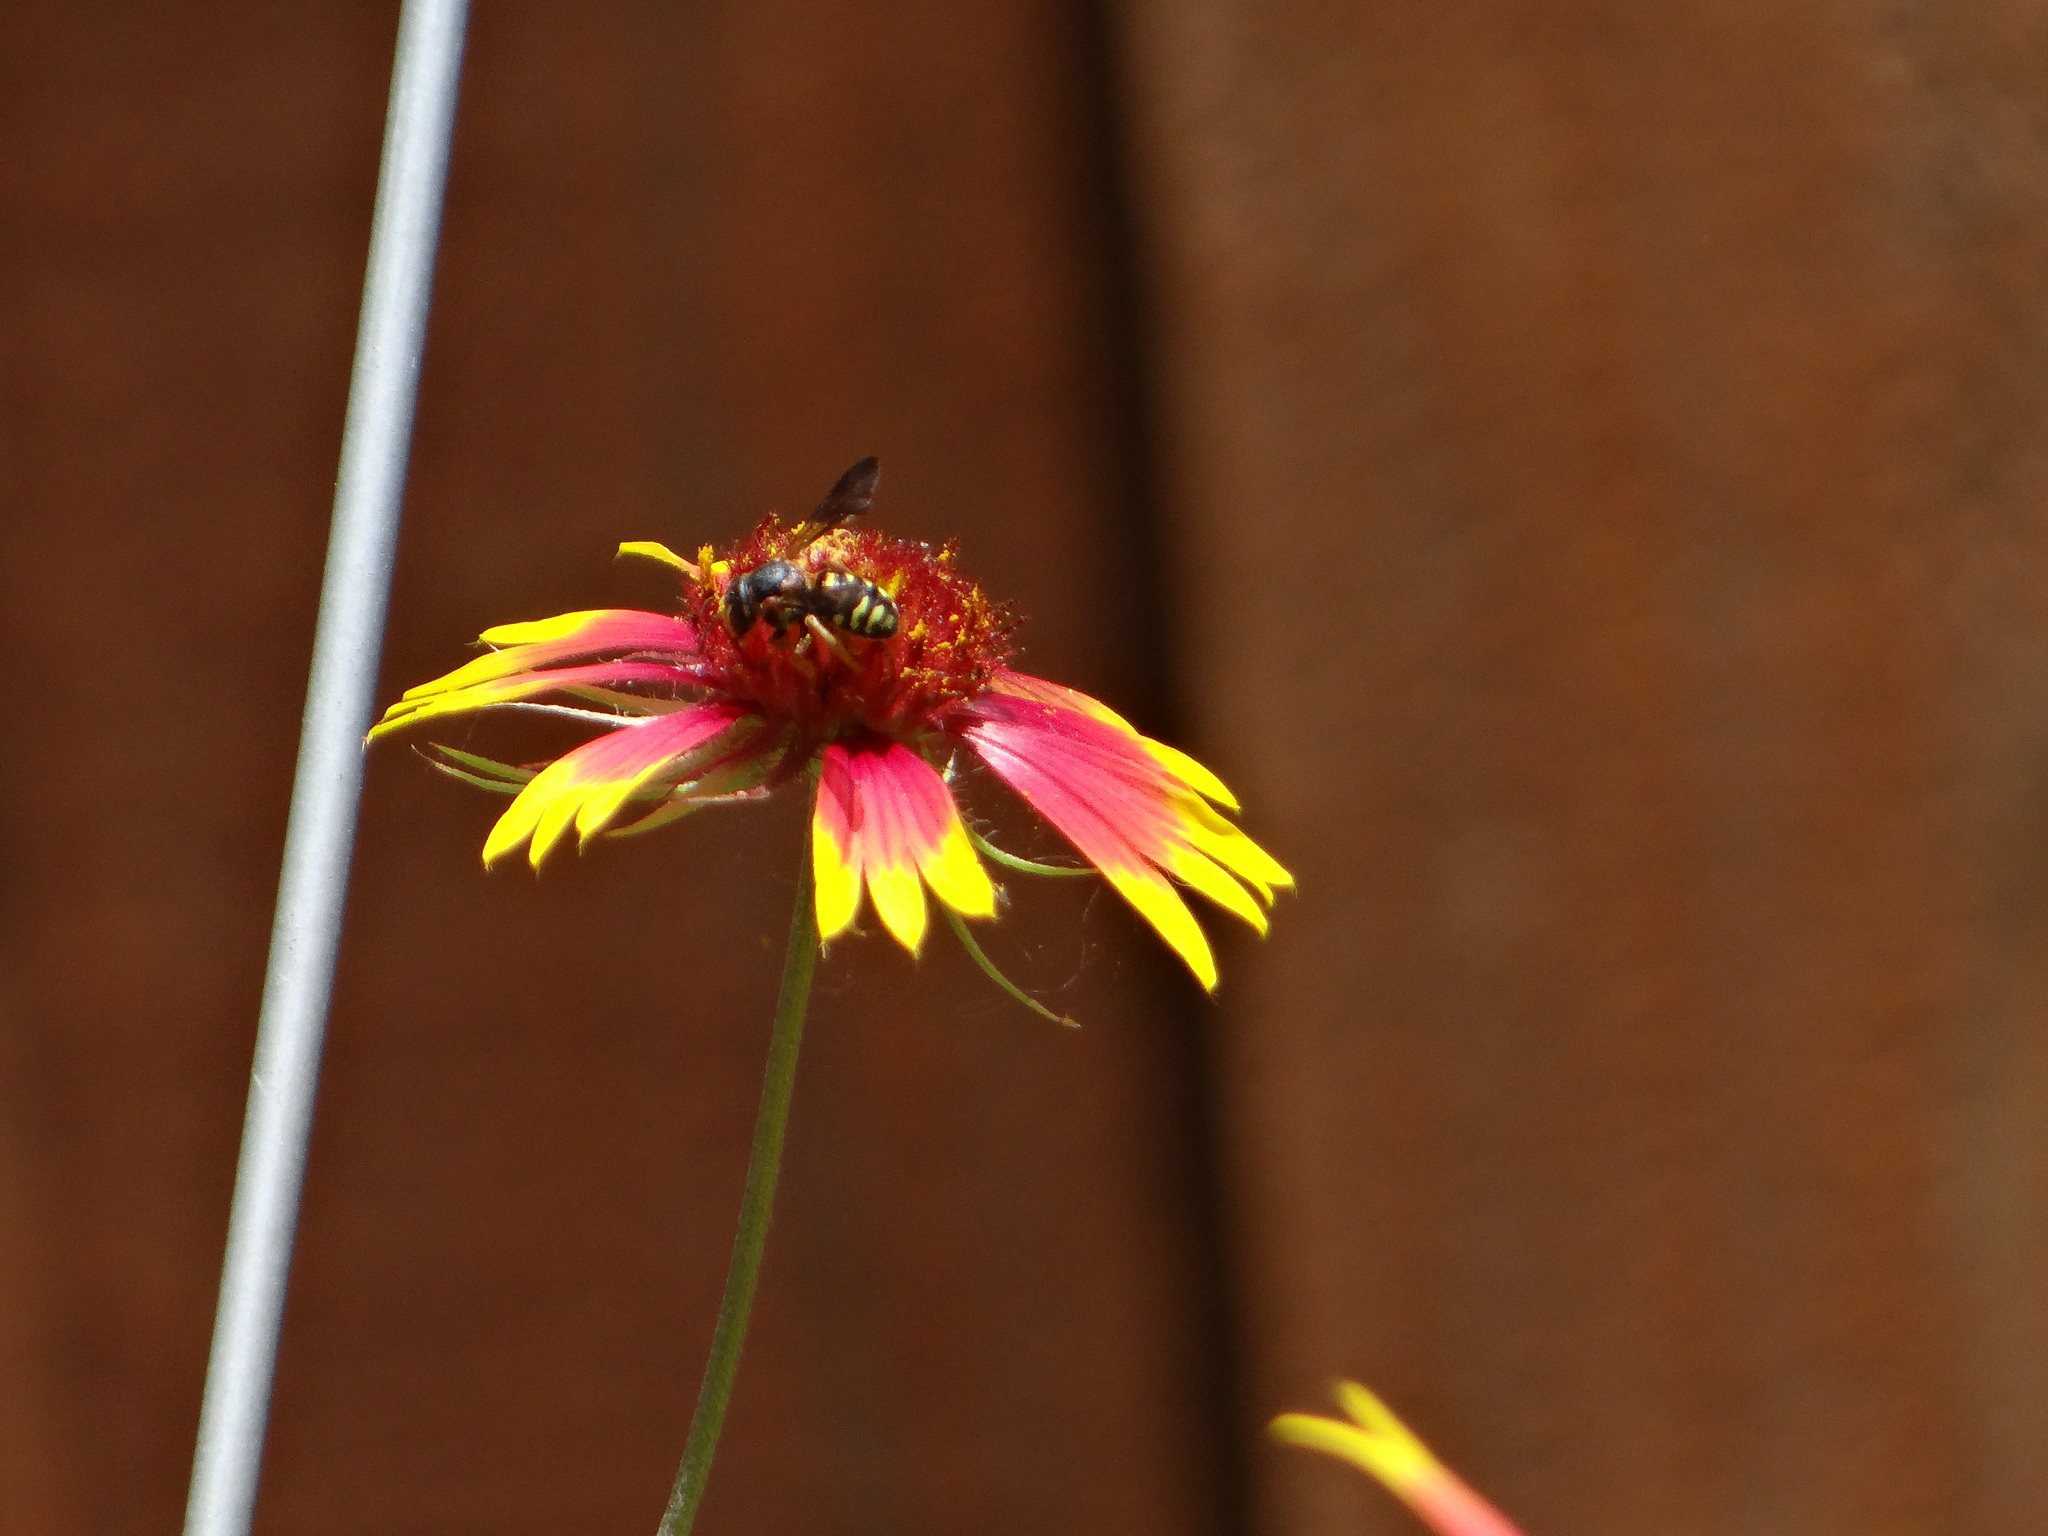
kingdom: Animalia
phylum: Arthropoda
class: Insecta
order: Hymenoptera
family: Megachilidae
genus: Dianthidium
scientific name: Dianthidium curvatum
